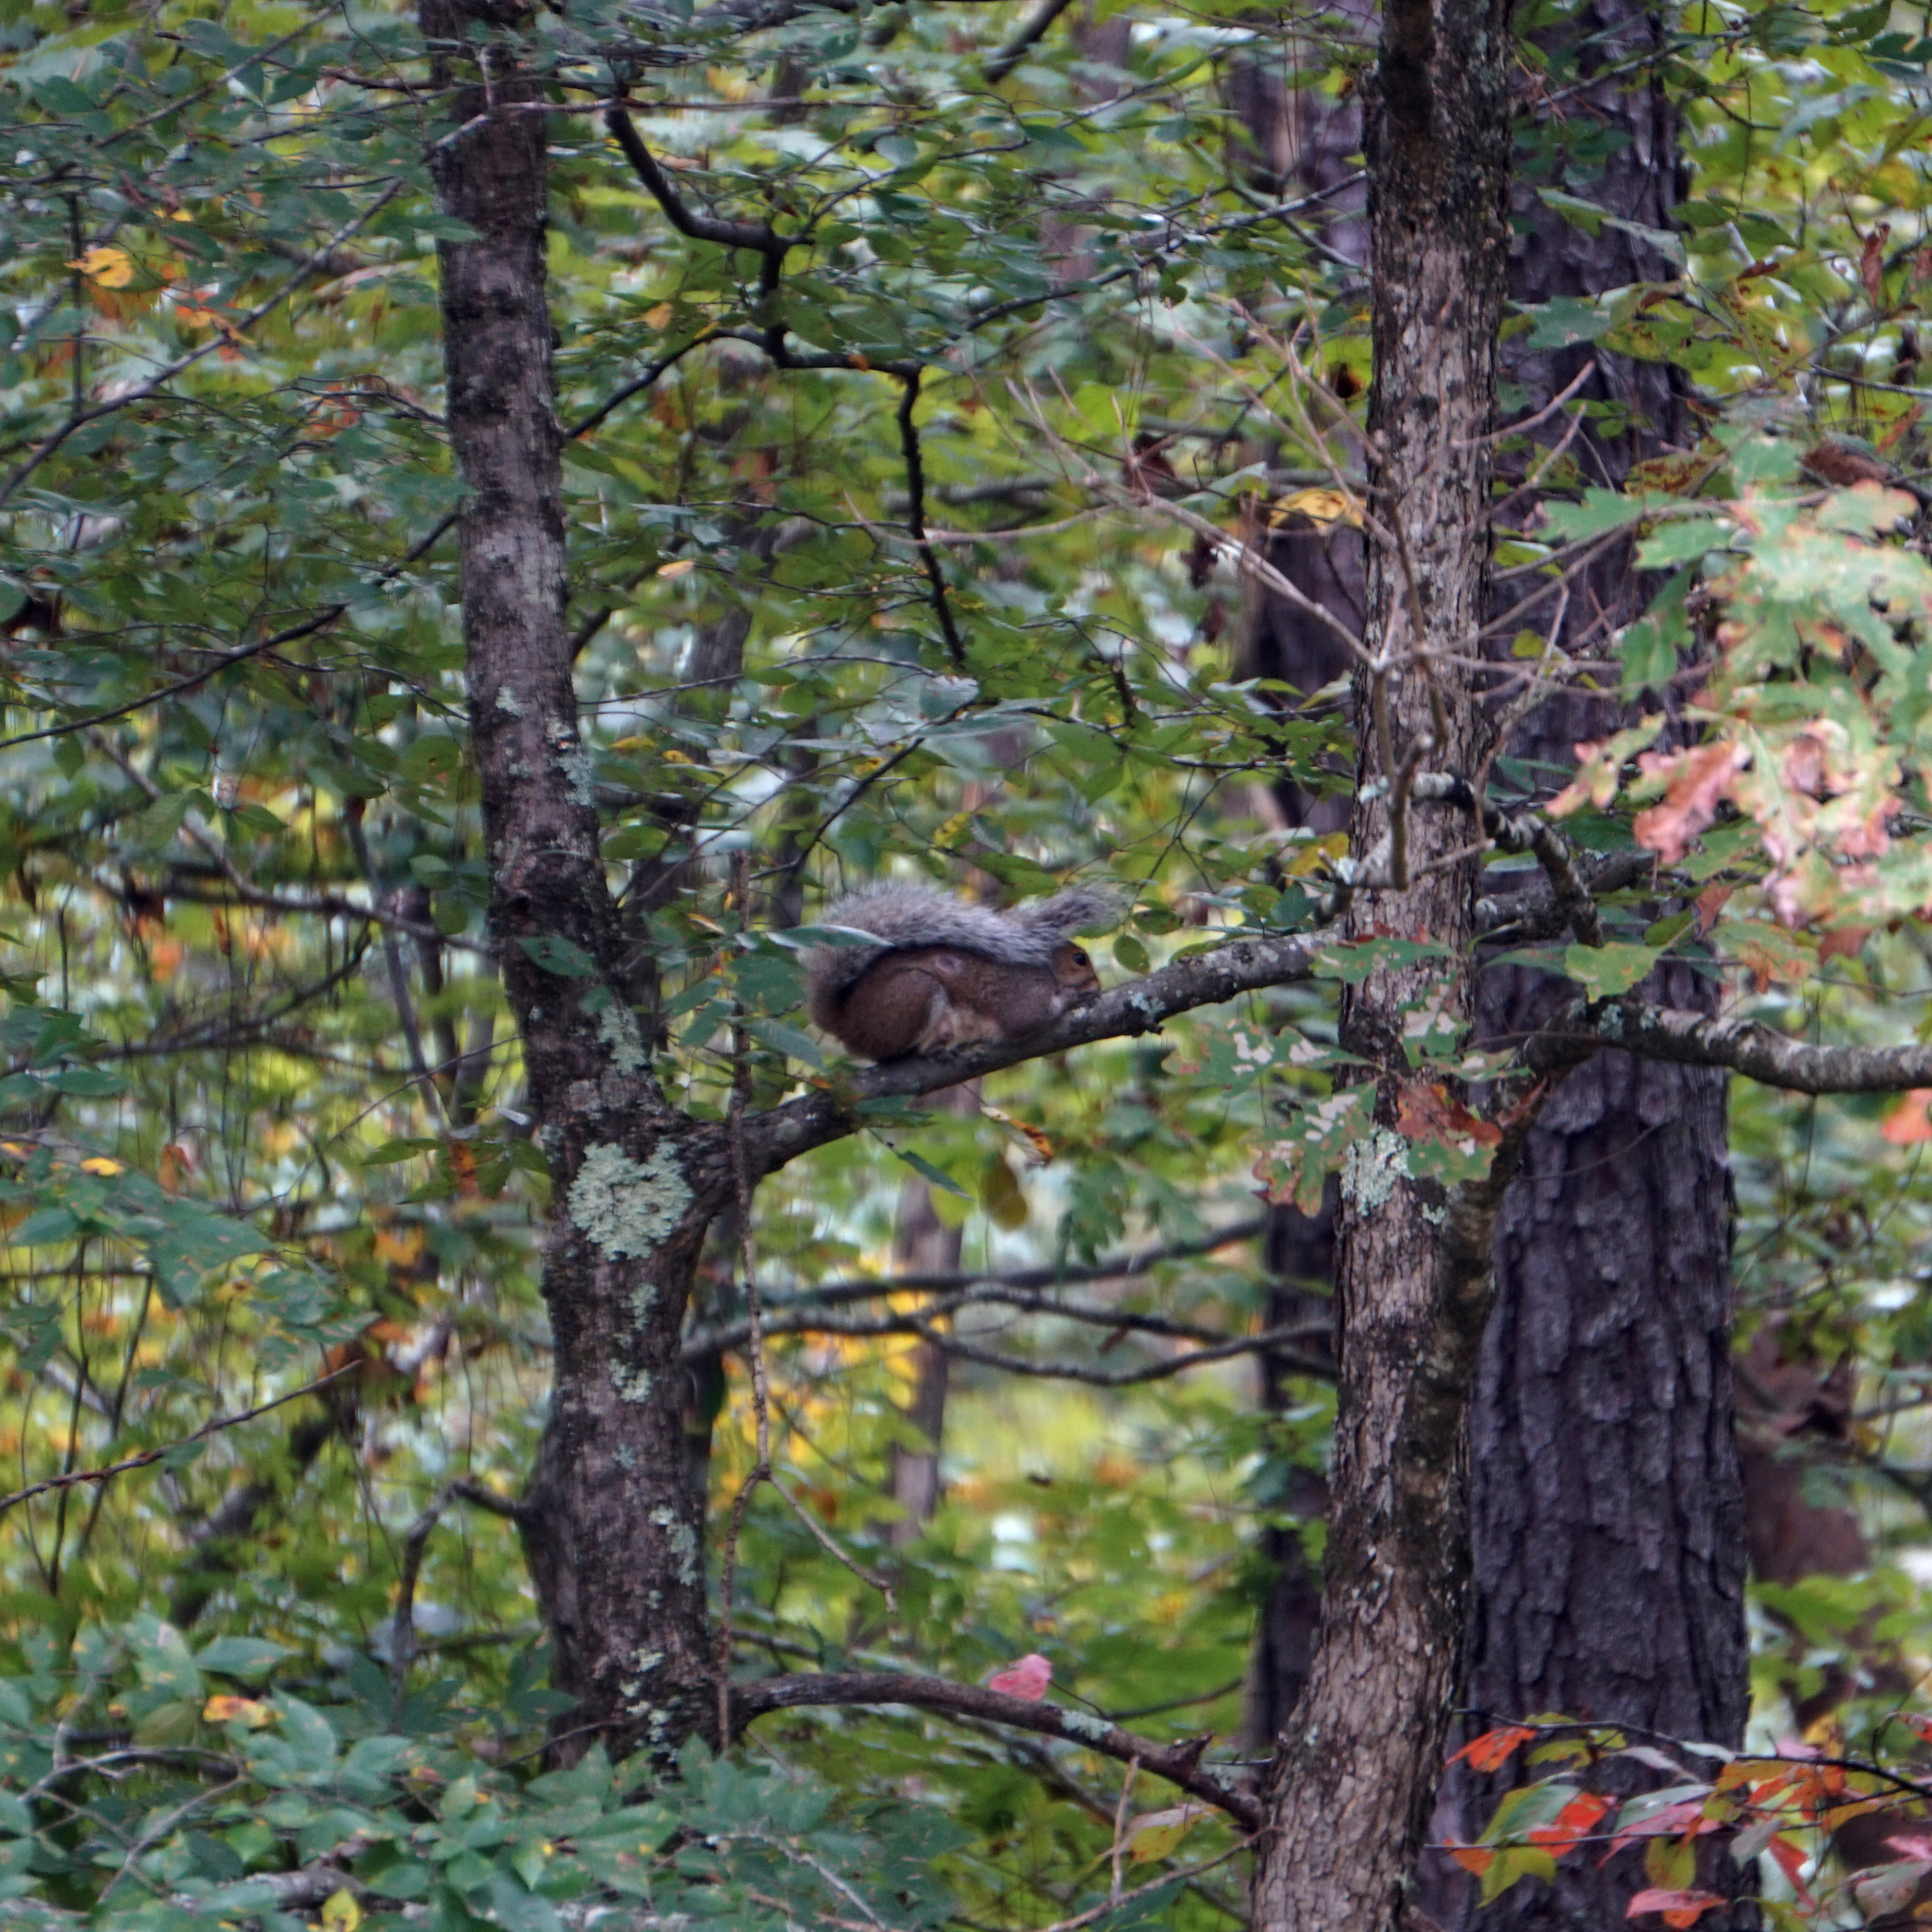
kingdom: Animalia
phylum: Chordata
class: Mammalia
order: Rodentia
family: Sciuridae
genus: Sciurus
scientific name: Sciurus carolinensis
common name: Eastern gray squirrel
